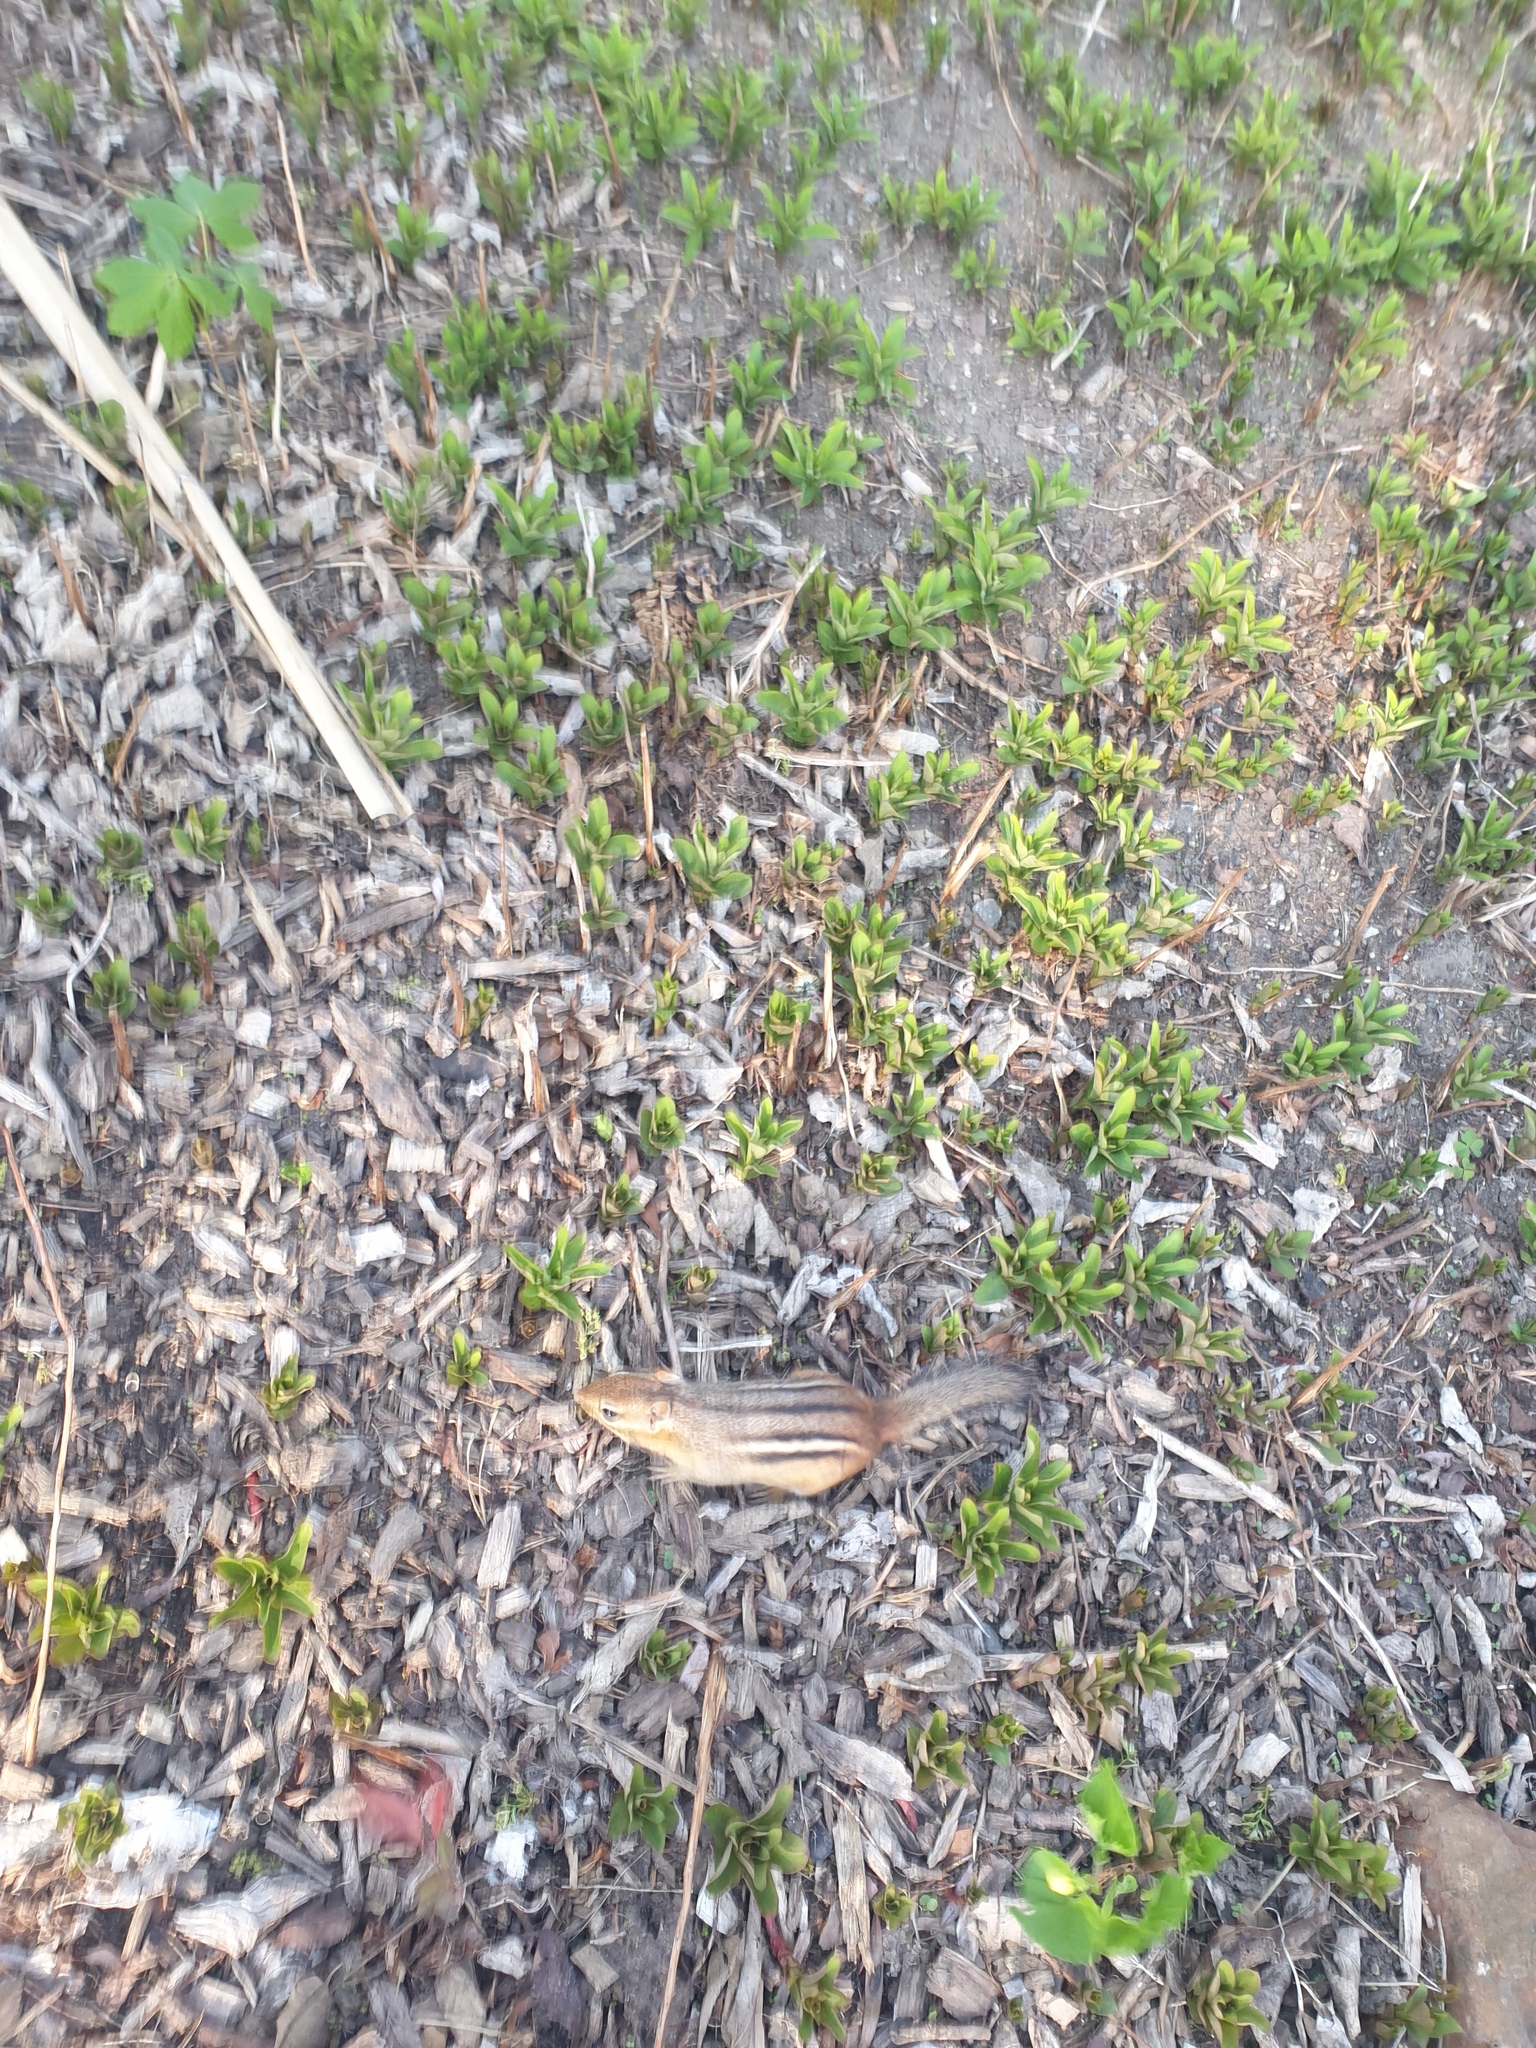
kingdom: Animalia
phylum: Chordata
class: Mammalia
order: Rodentia
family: Sciuridae
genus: Tamias
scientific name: Tamias striatus
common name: Eastern chipmunk
